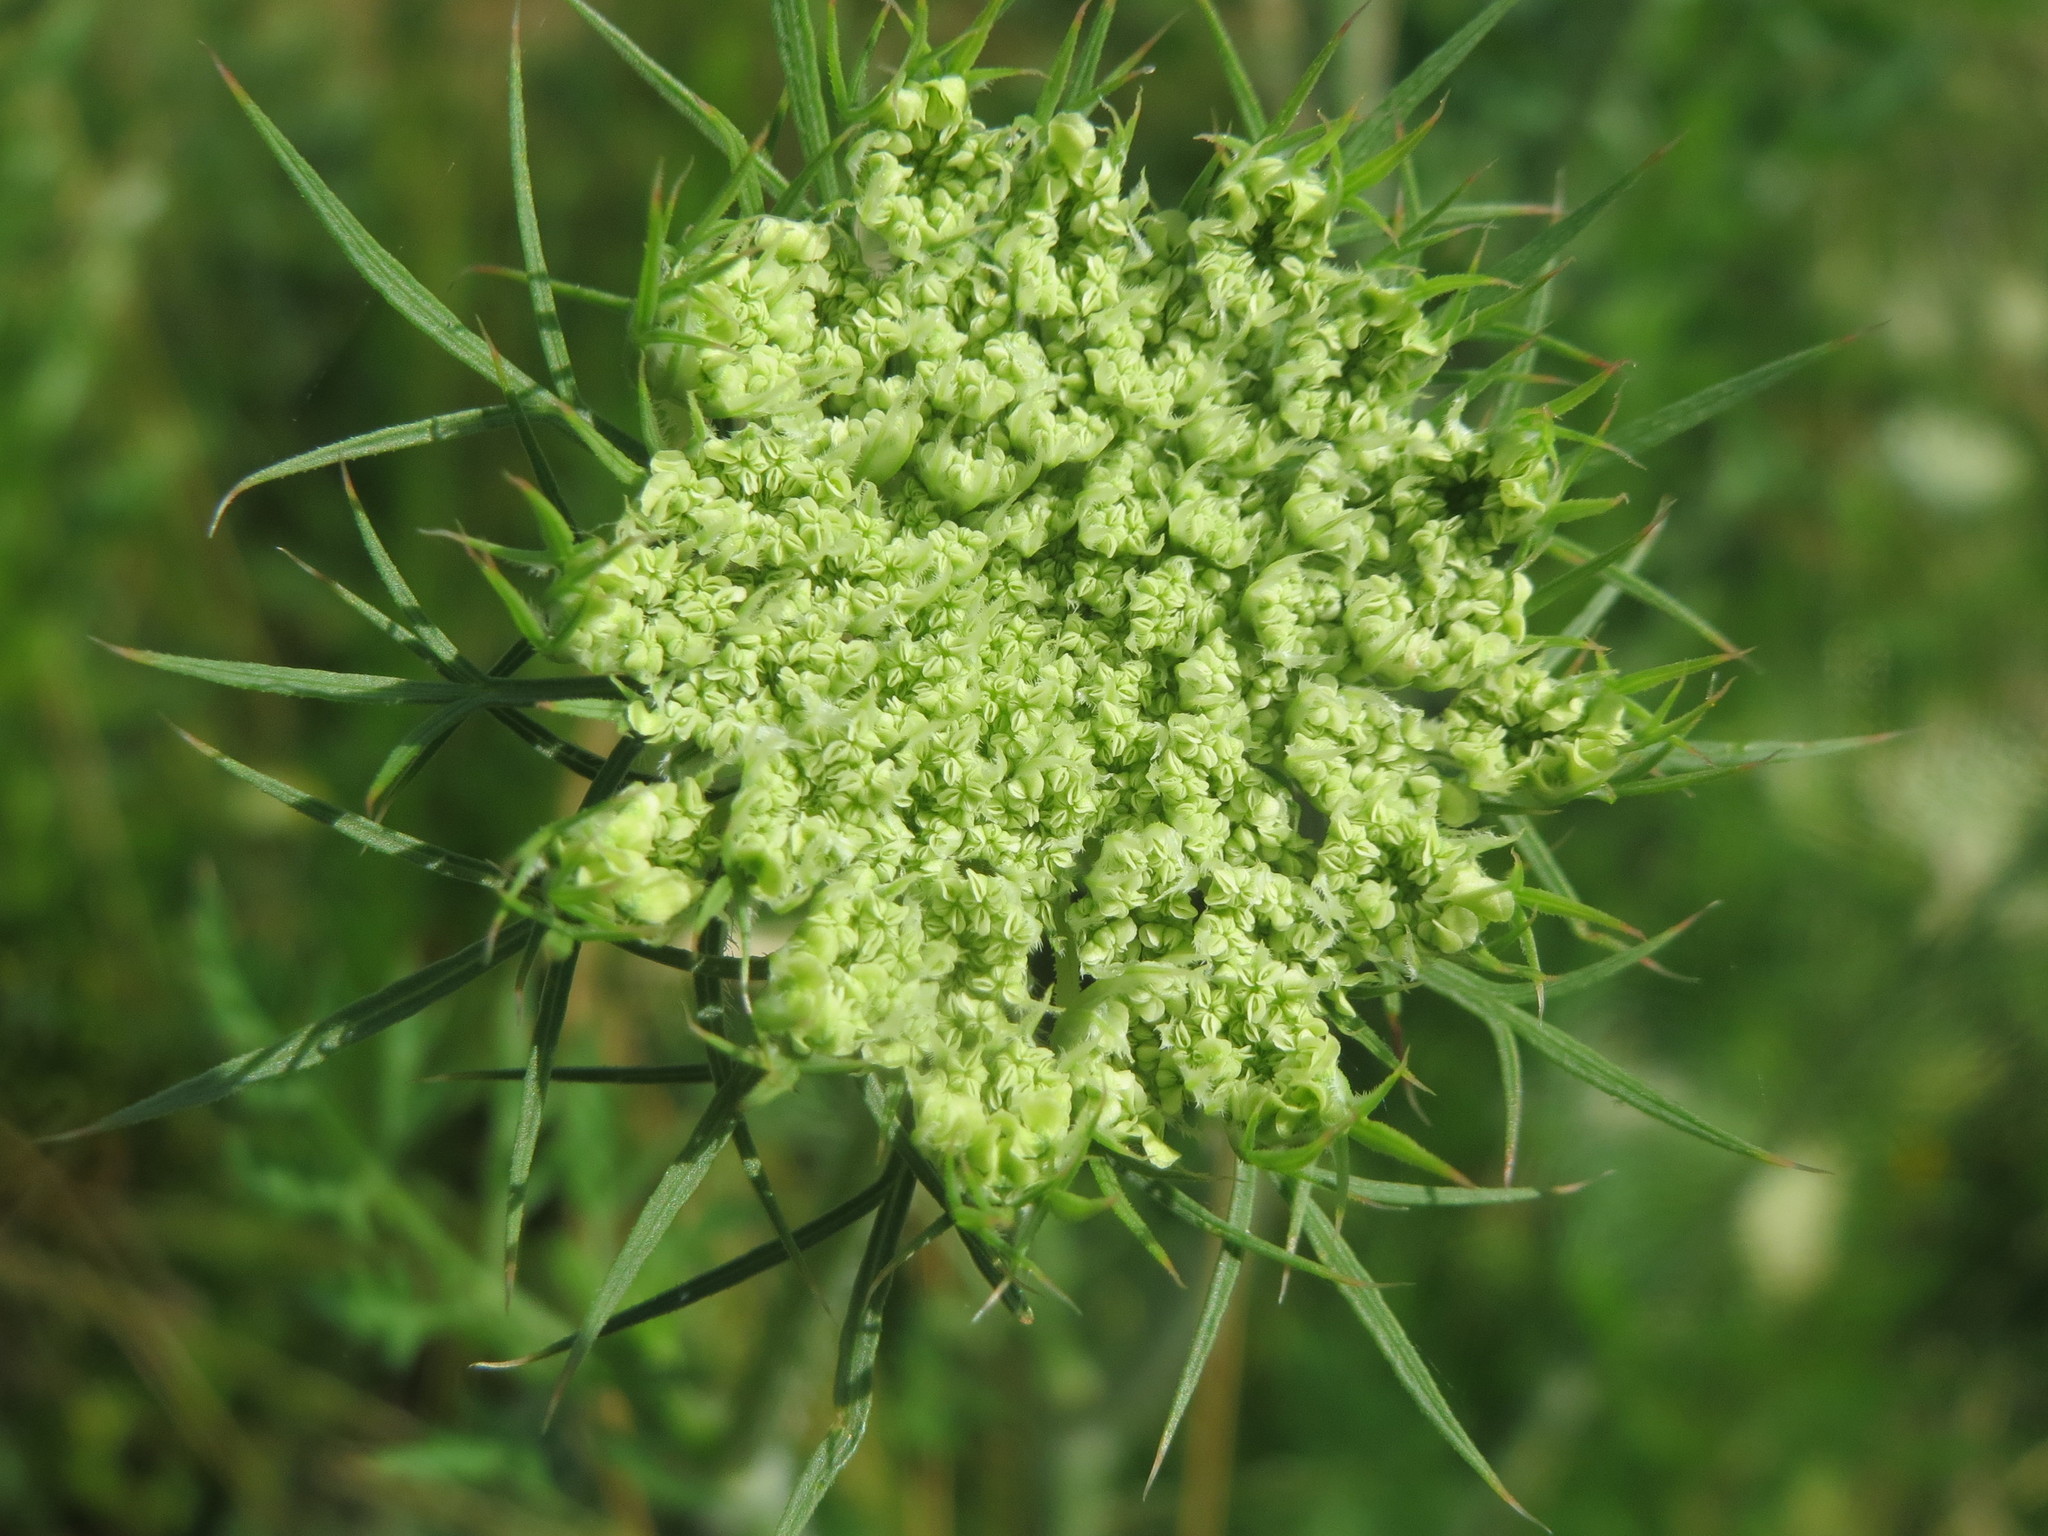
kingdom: Plantae
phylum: Tracheophyta
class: Magnoliopsida
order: Apiales
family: Apiaceae
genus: Daucus
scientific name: Daucus carota
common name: Wild carrot
